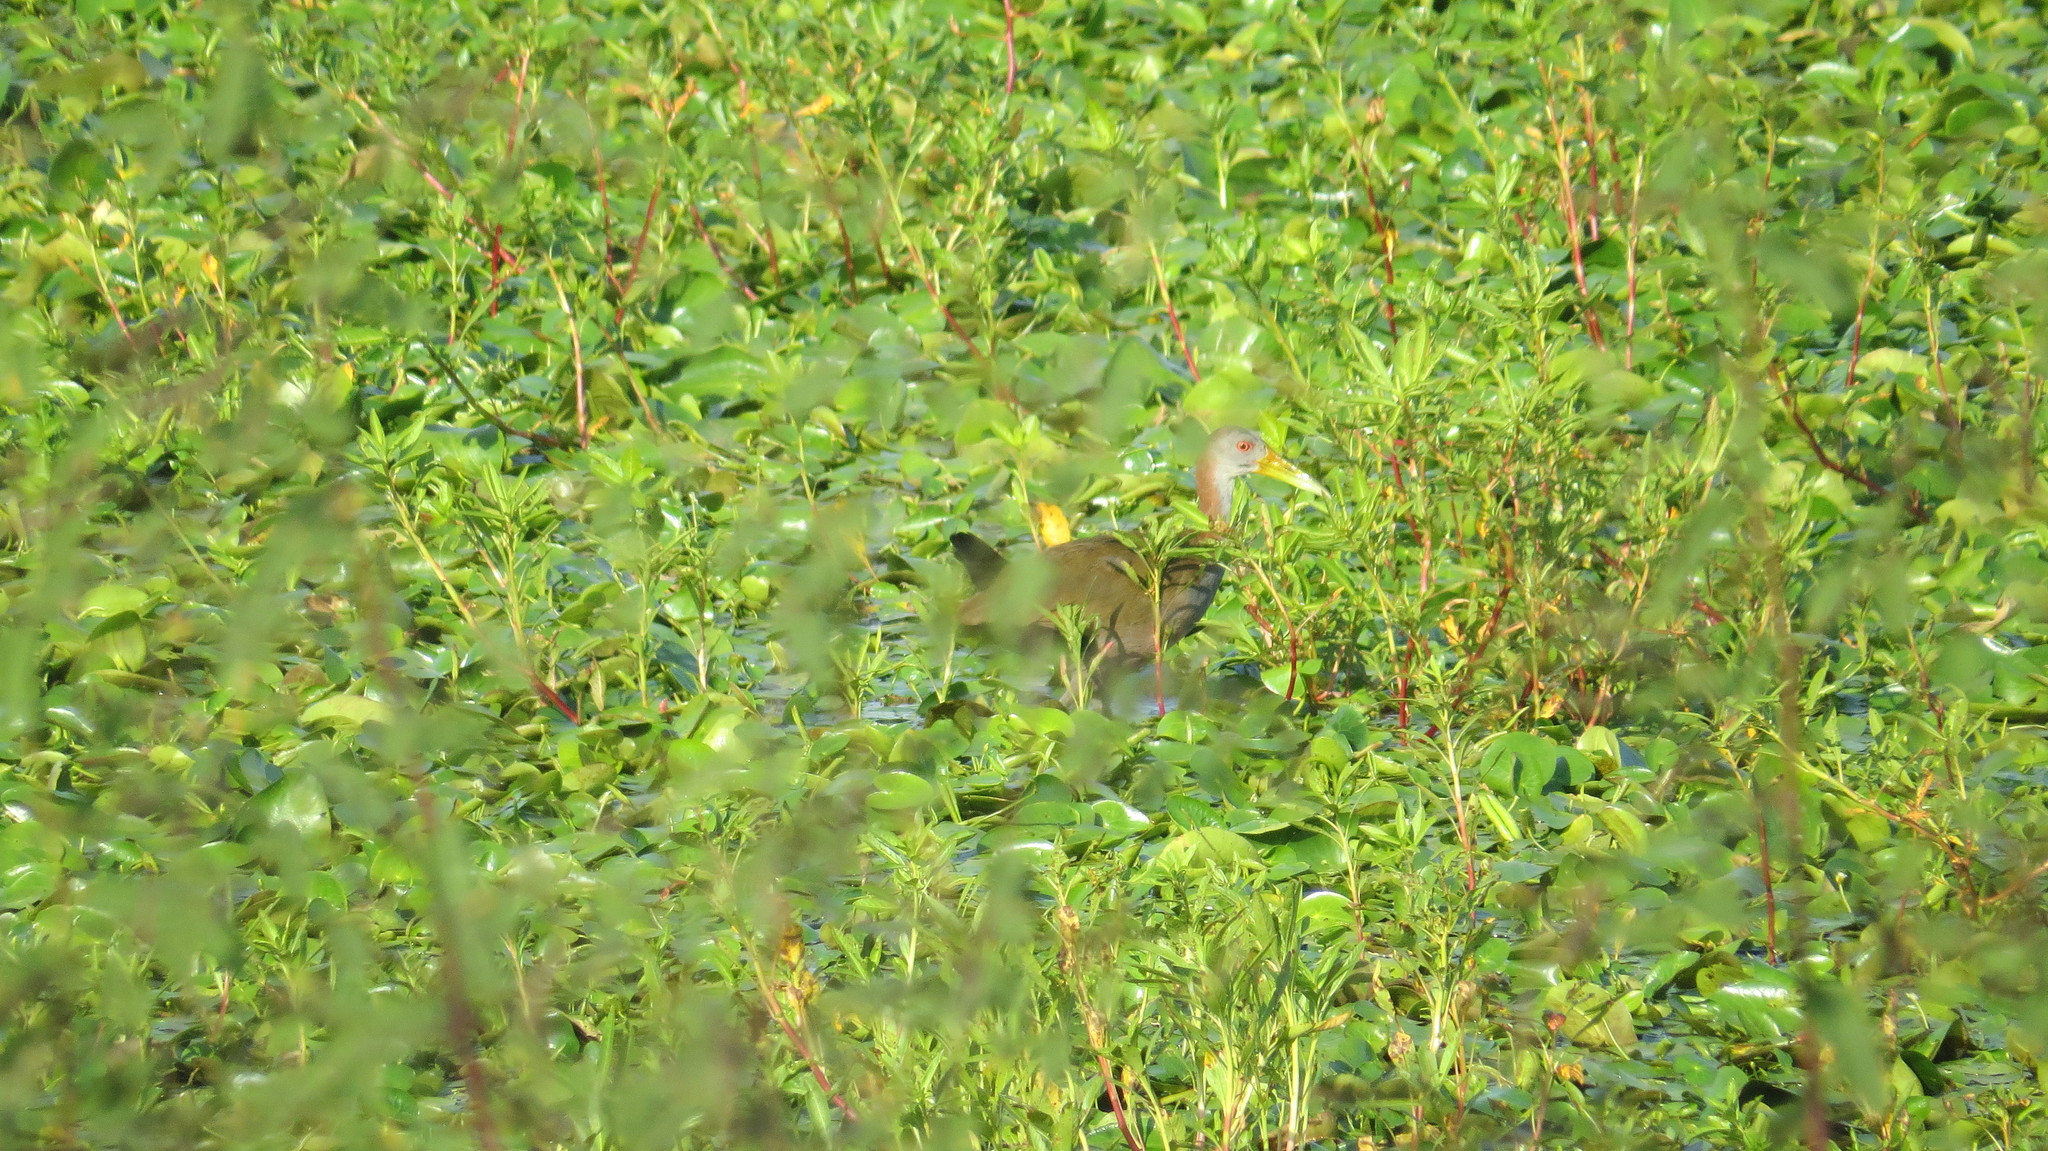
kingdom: Animalia
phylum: Chordata
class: Aves
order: Gruiformes
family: Rallidae
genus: Aramides
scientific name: Aramides ypecaha
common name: Giant wood rail
